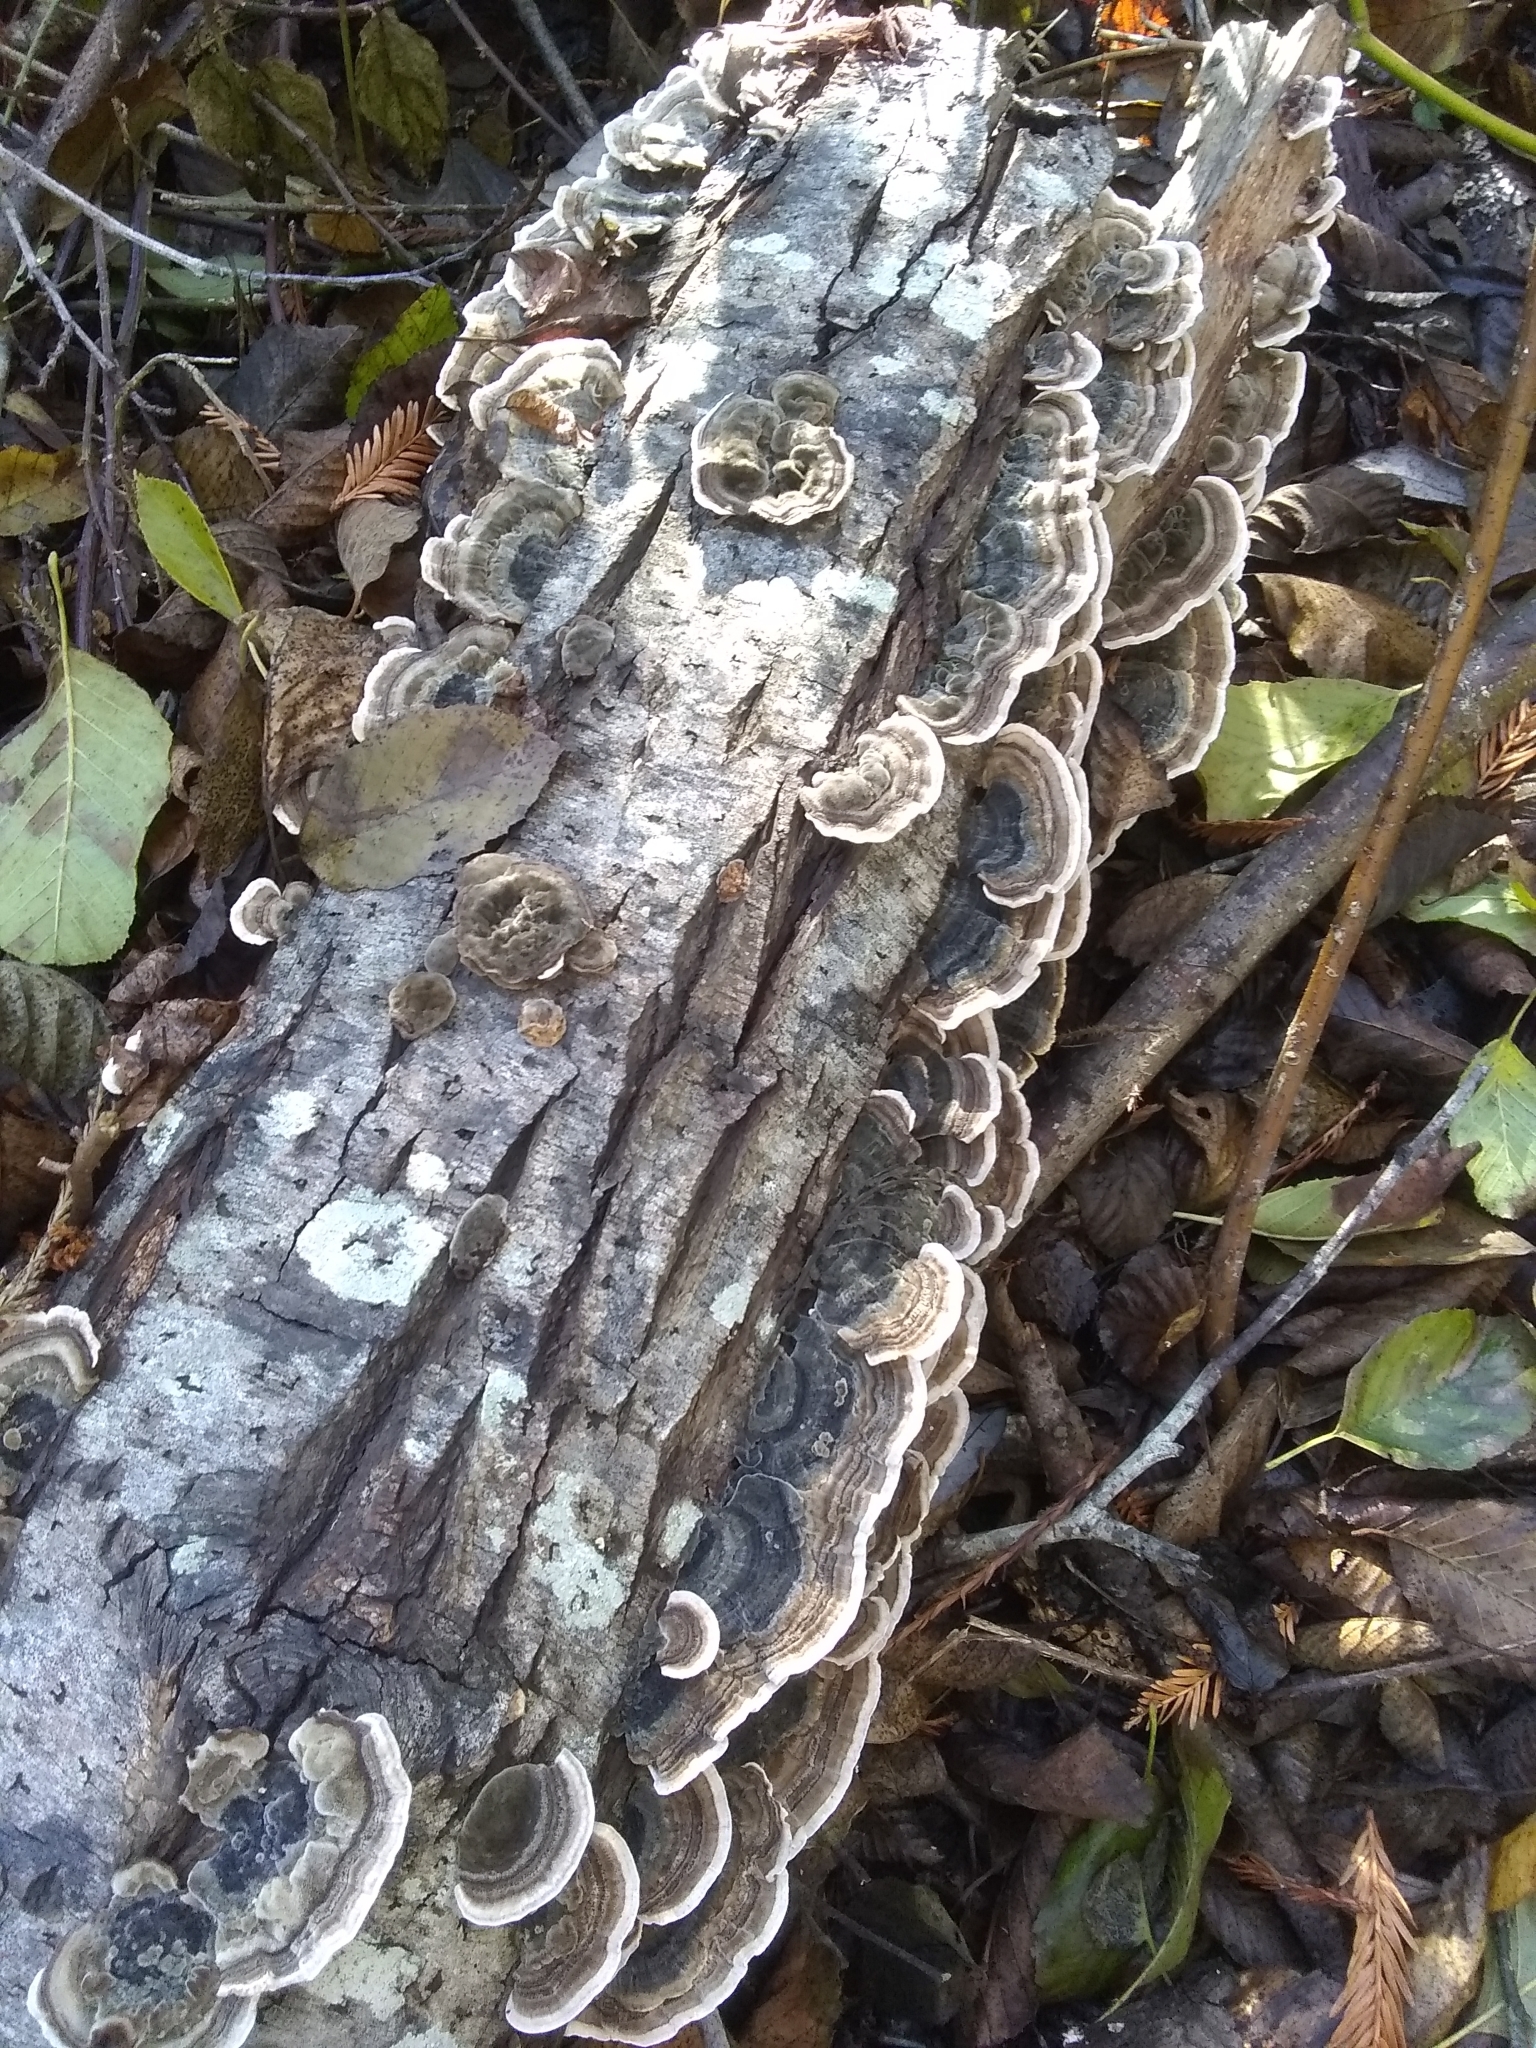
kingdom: Fungi
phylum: Basidiomycota
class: Agaricomycetes
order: Polyporales
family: Polyporaceae
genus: Trametes
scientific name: Trametes versicolor
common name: Turkeytail
